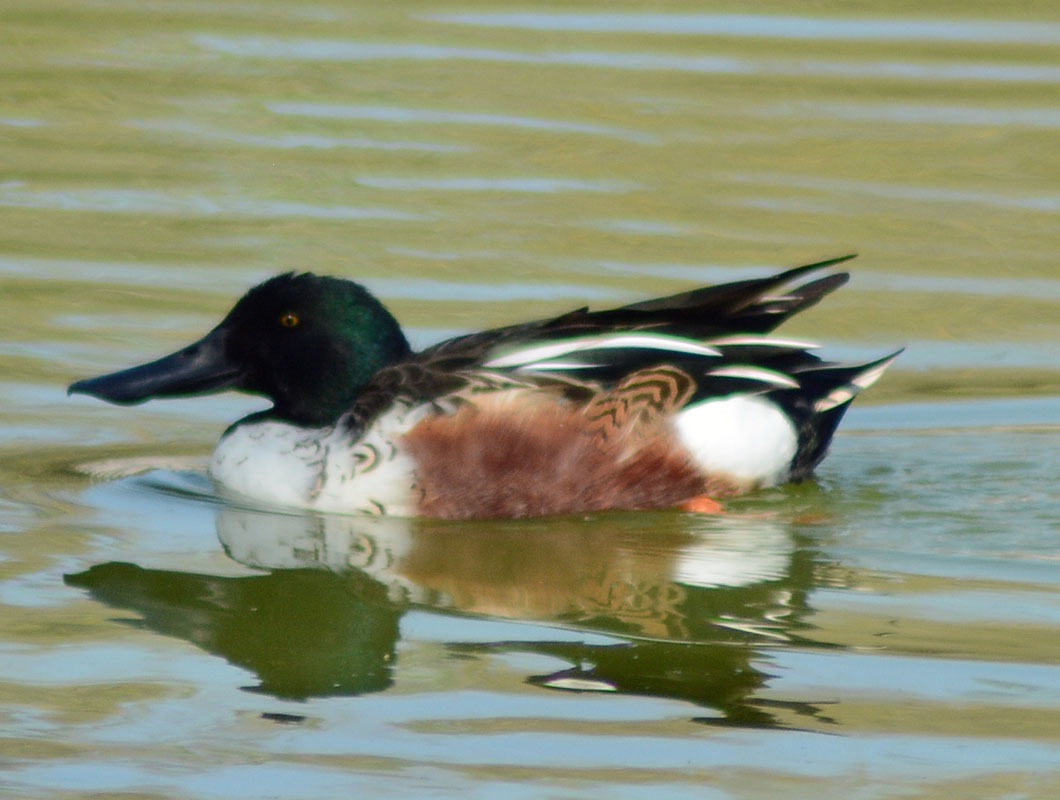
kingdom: Animalia
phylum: Chordata
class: Aves
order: Anseriformes
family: Anatidae
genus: Spatula
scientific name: Spatula clypeata
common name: Northern shoveler
